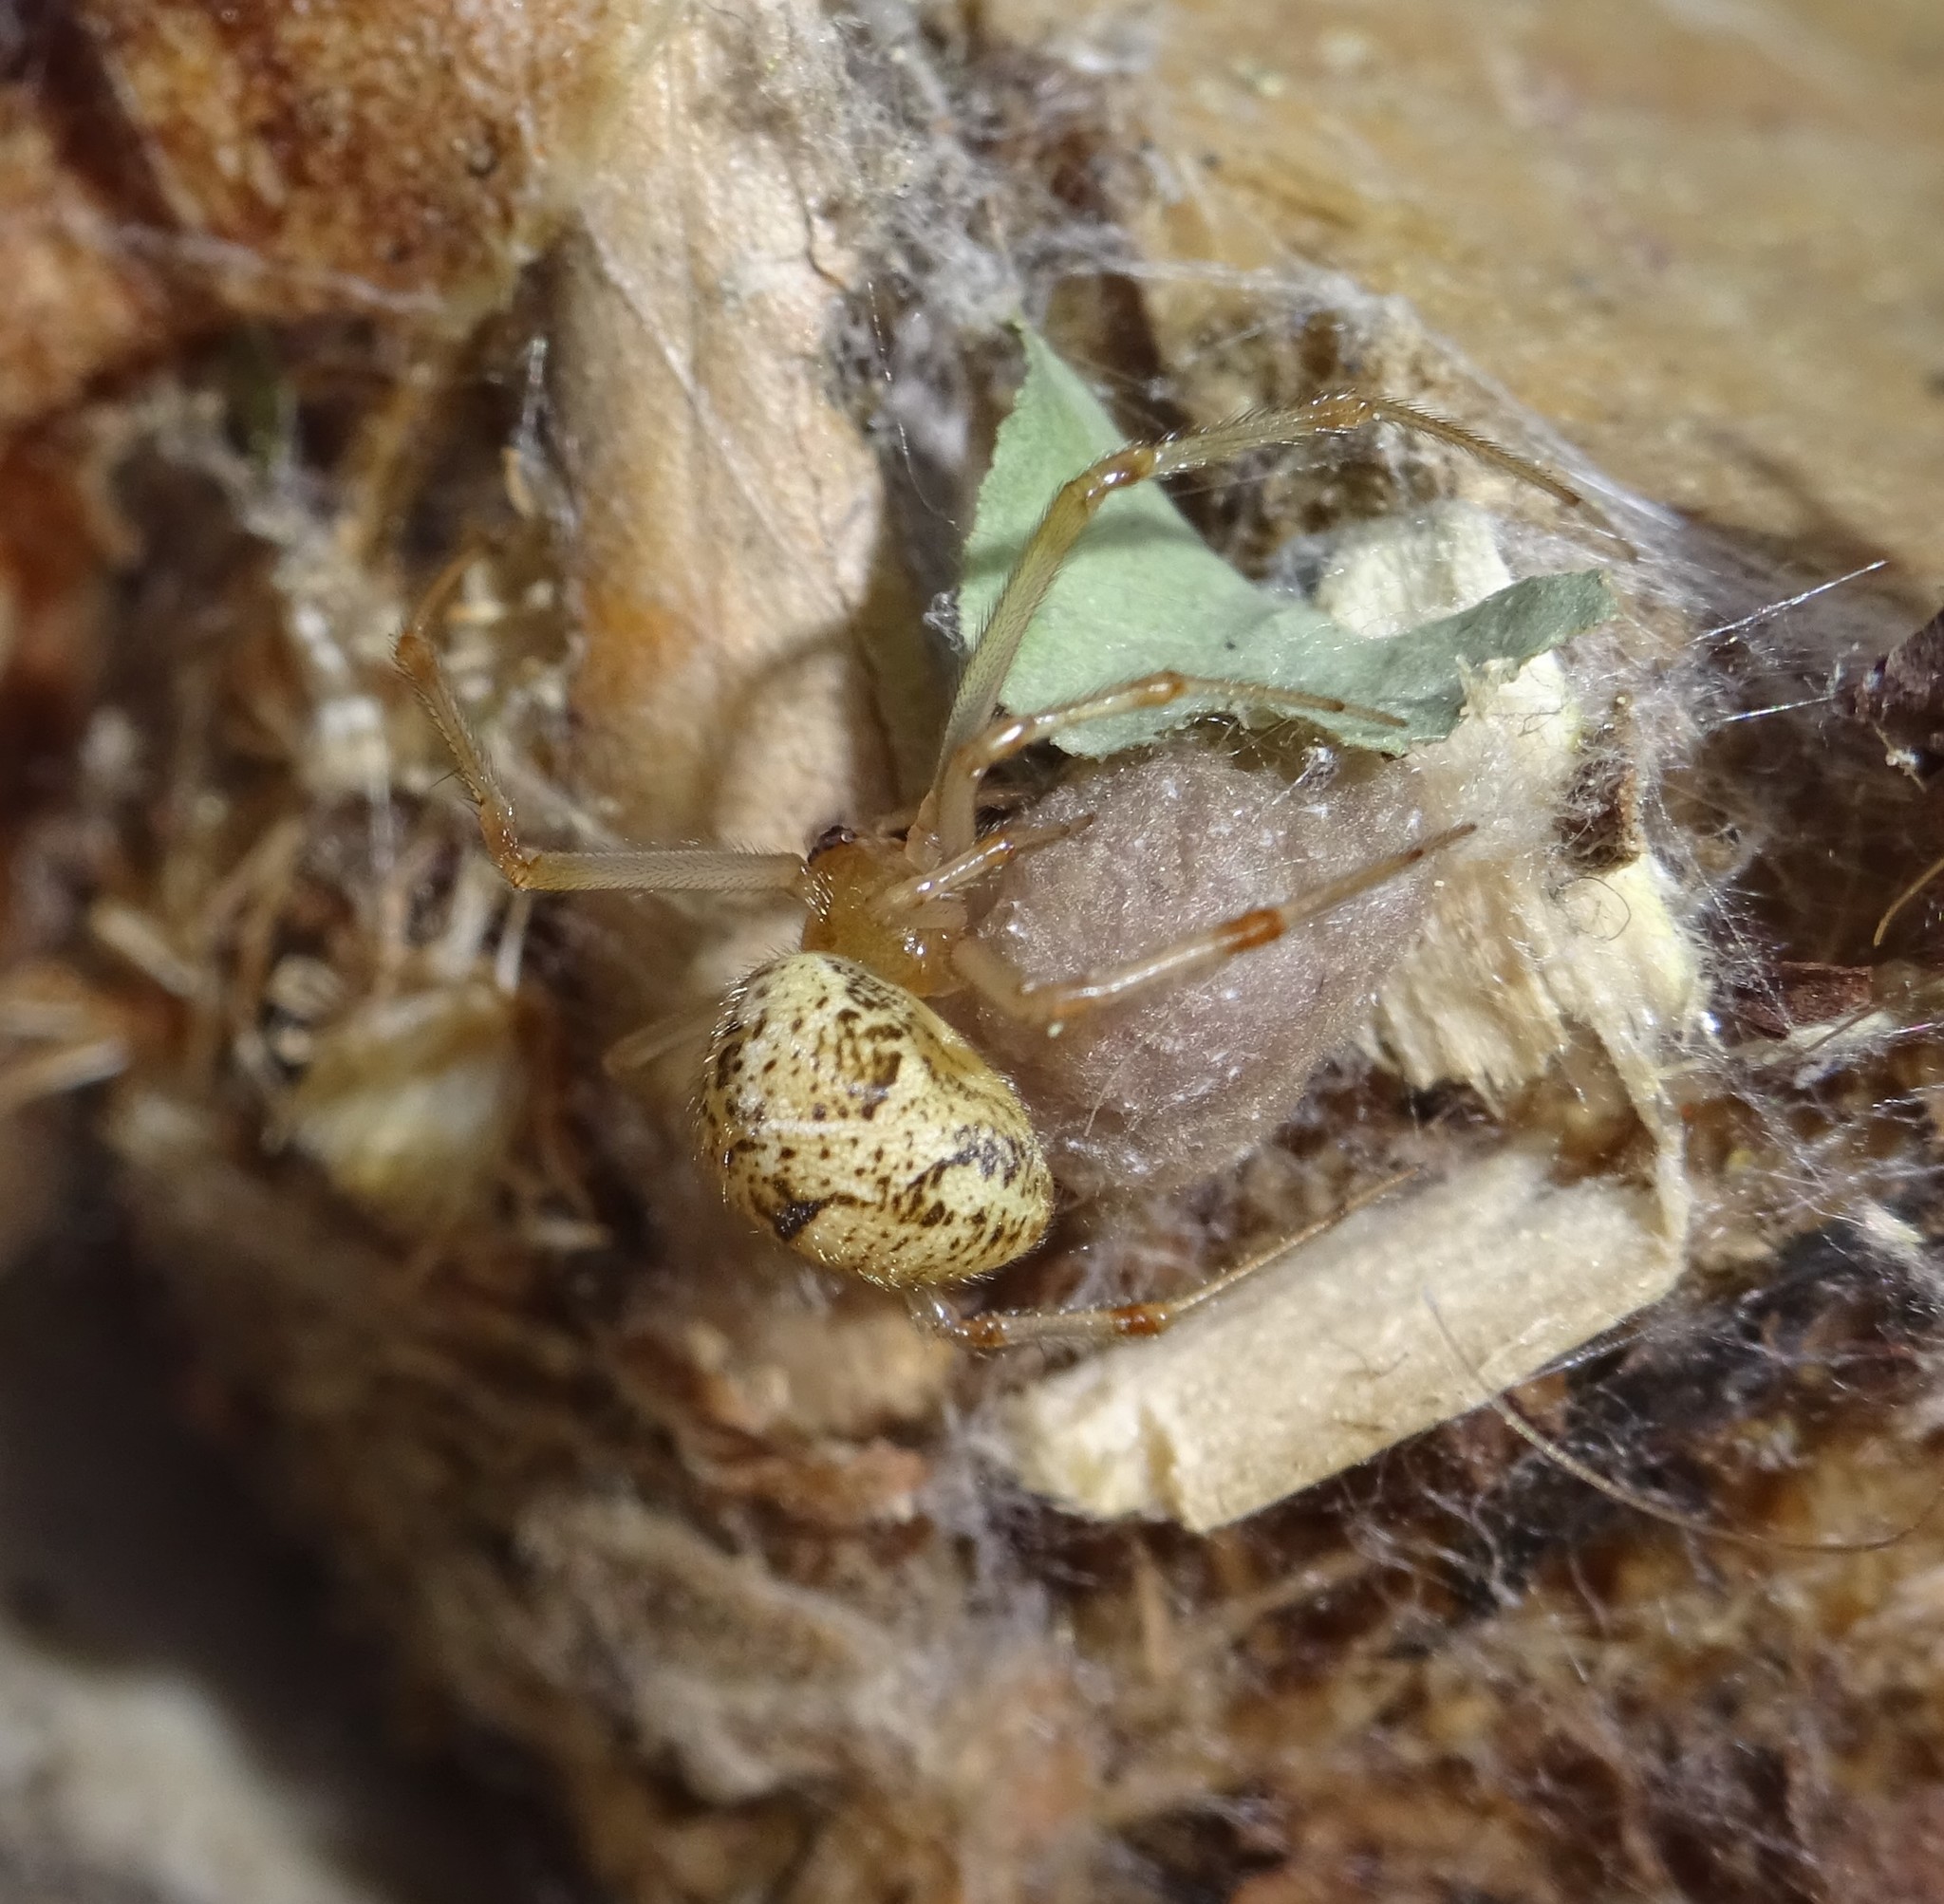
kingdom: Animalia
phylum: Arthropoda
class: Arachnida
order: Araneae
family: Theridiidae
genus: Parasteatoda
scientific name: Parasteatoda tepidariorum
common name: Common house spider
